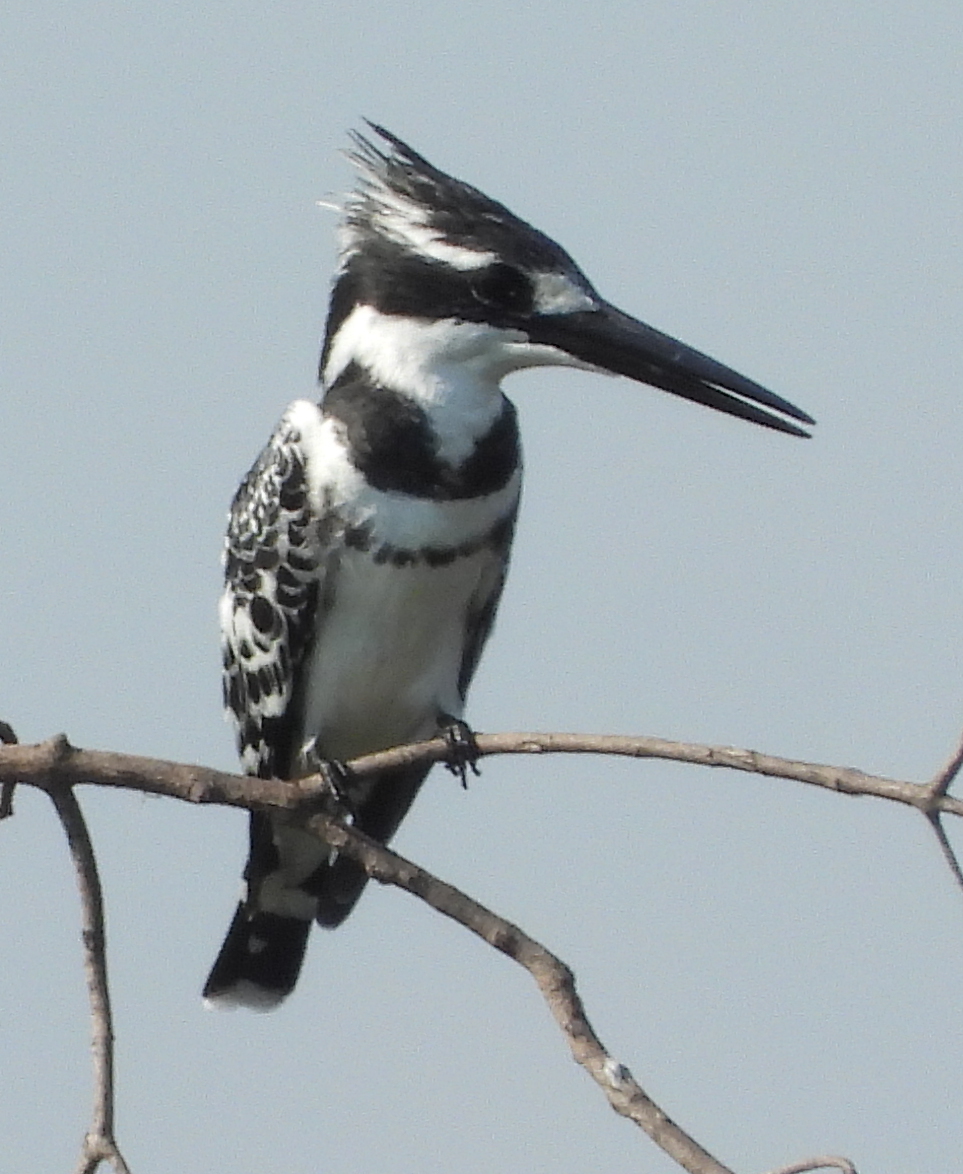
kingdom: Animalia
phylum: Chordata
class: Aves
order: Coraciiformes
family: Alcedinidae
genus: Ceryle
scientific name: Ceryle rudis
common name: Pied kingfisher
